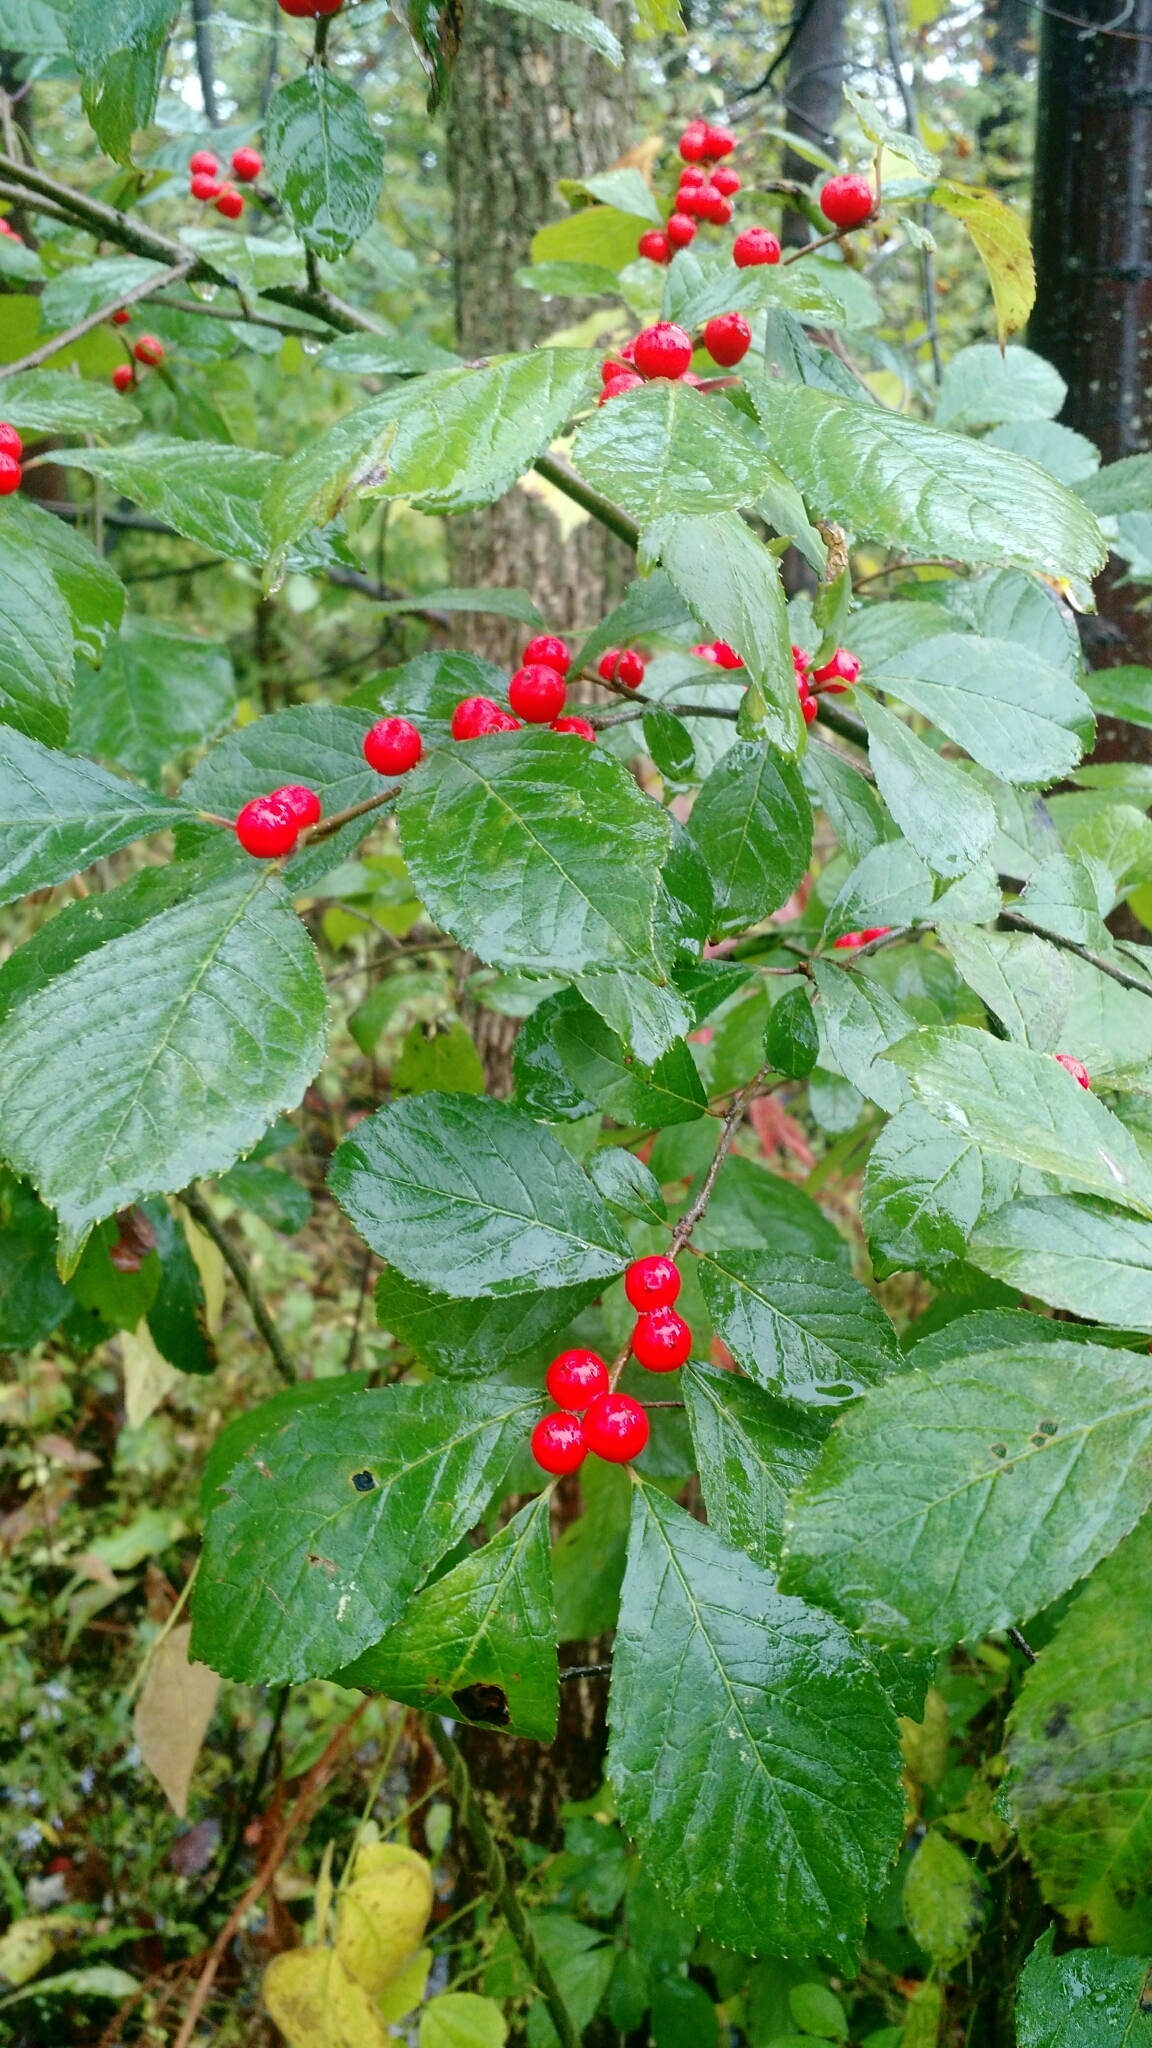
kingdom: Plantae
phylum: Tracheophyta
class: Magnoliopsida
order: Aquifoliales
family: Aquifoliaceae
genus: Ilex
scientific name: Ilex verticillata
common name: Virginia winterberry
